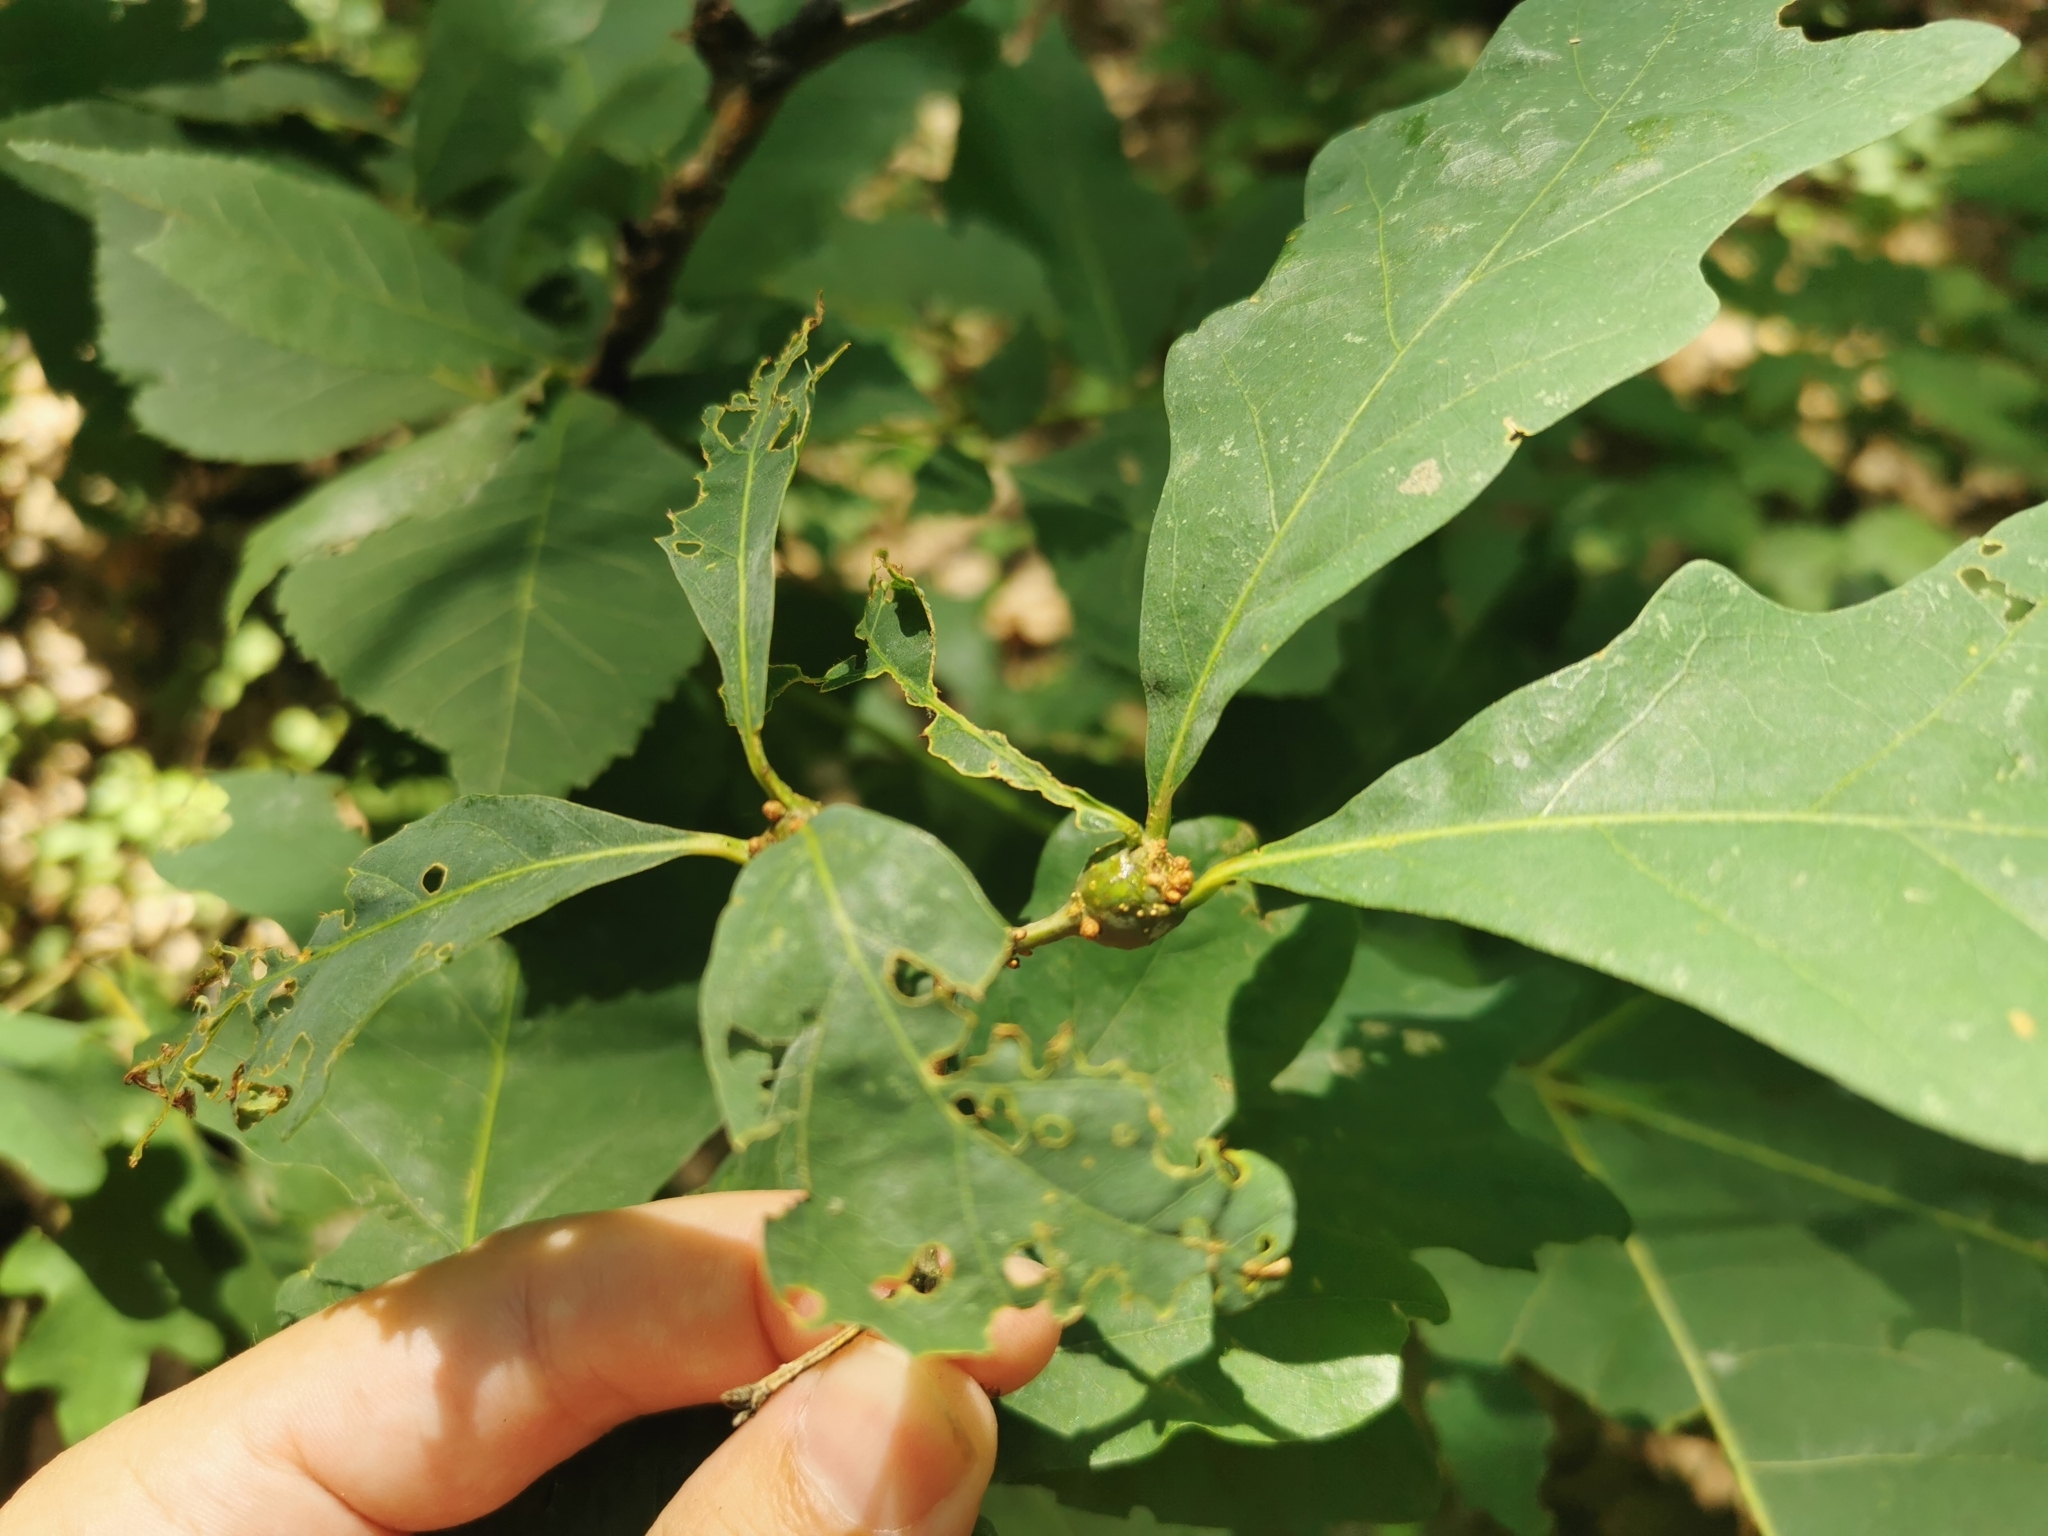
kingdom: Animalia
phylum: Arthropoda
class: Insecta
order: Hymenoptera
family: Cynipidae
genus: Callirhytis
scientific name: Callirhytis clavula
